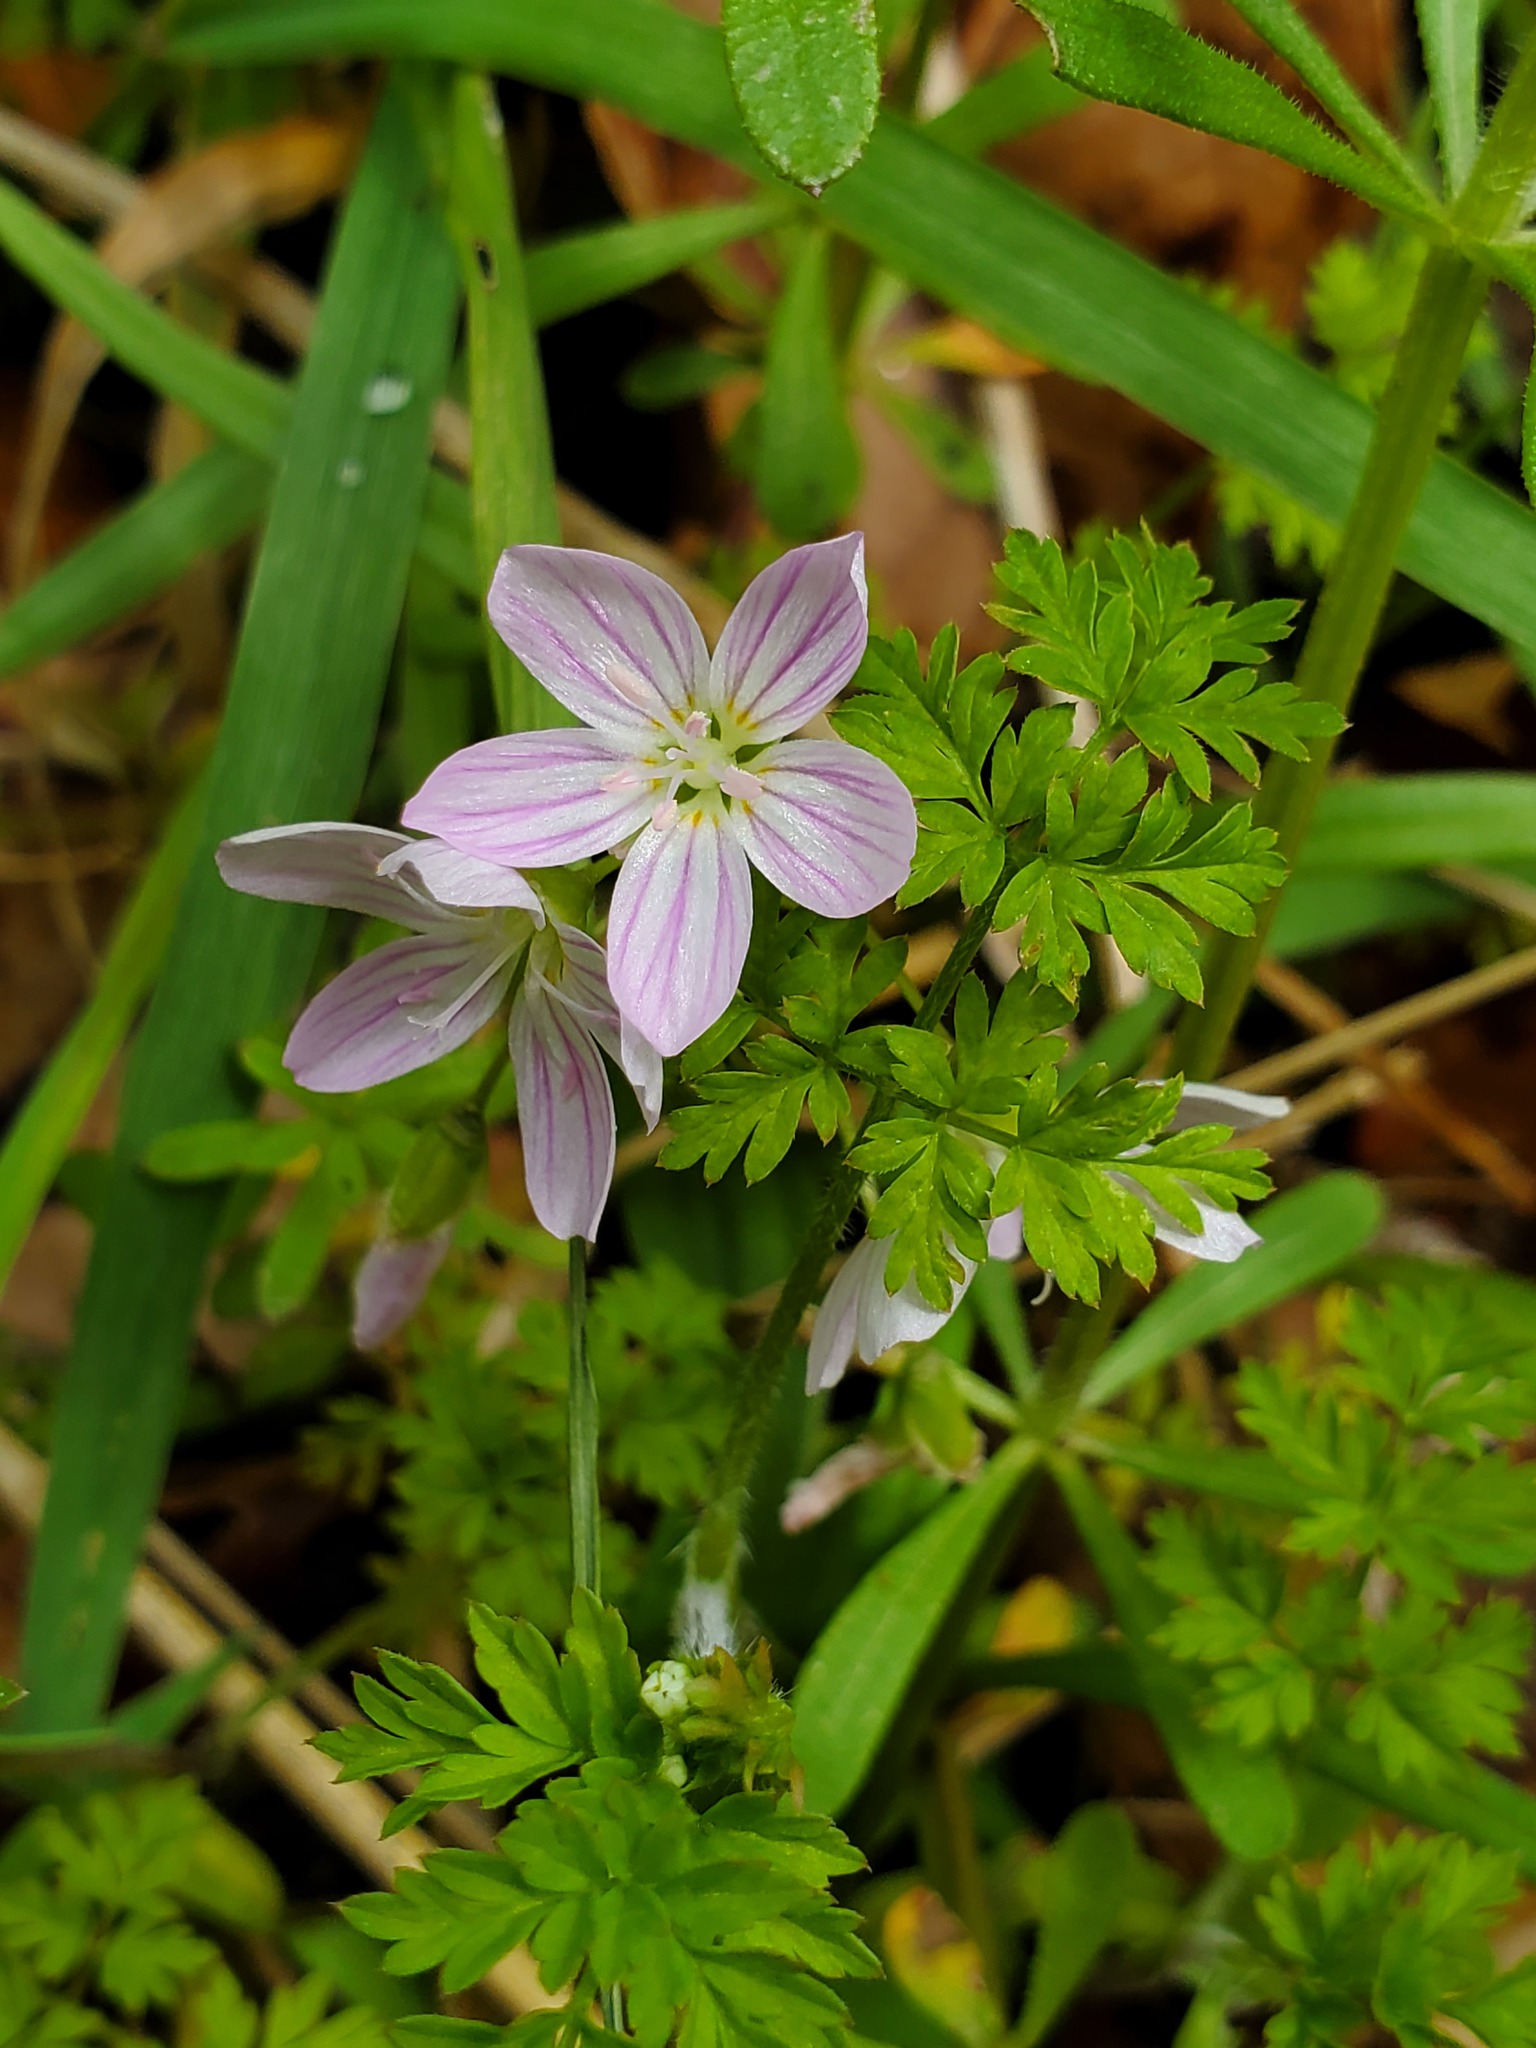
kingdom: Plantae
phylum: Tracheophyta
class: Magnoliopsida
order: Caryophyllales
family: Montiaceae
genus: Claytonia
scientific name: Claytonia virginica
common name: Virginia springbeauty
